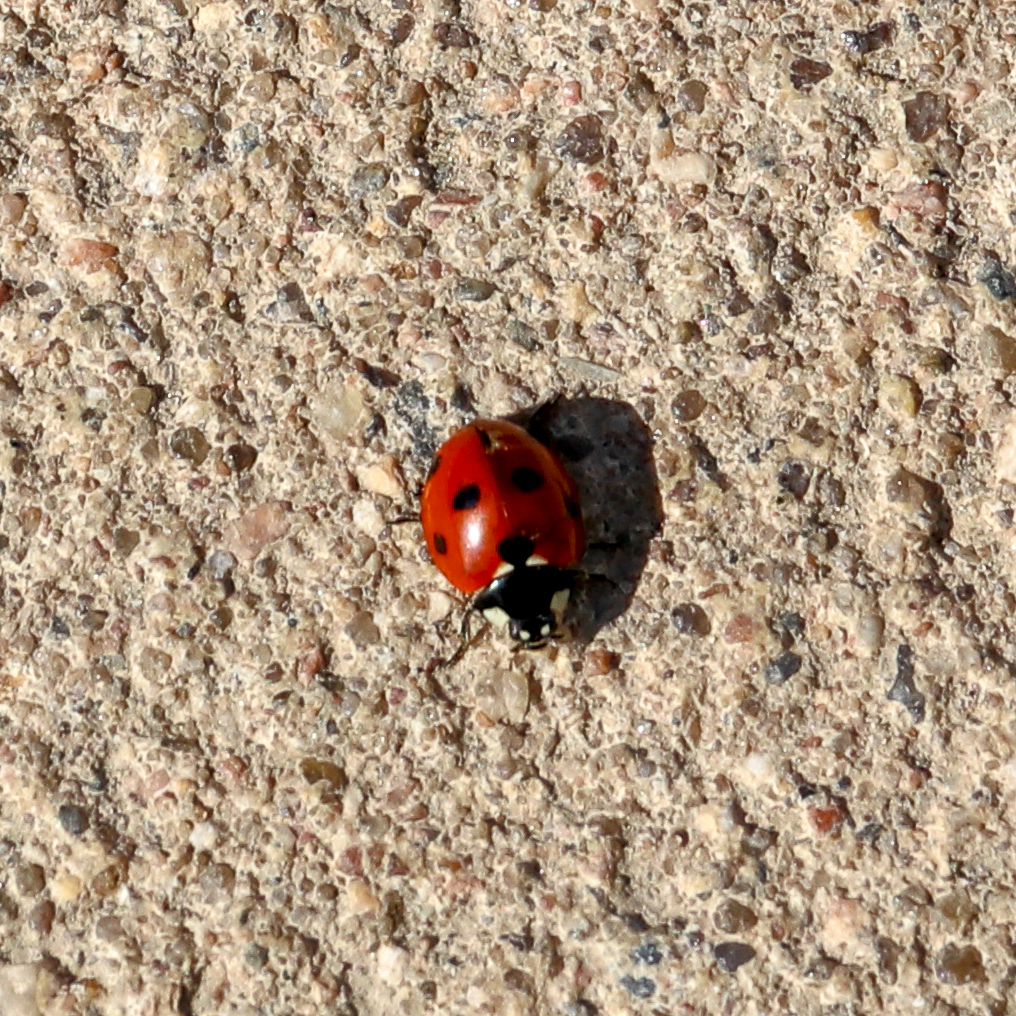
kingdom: Animalia
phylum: Arthropoda
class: Insecta
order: Coleoptera
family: Coccinellidae
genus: Coccinella
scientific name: Coccinella septempunctata
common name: Sevenspotted lady beetle
